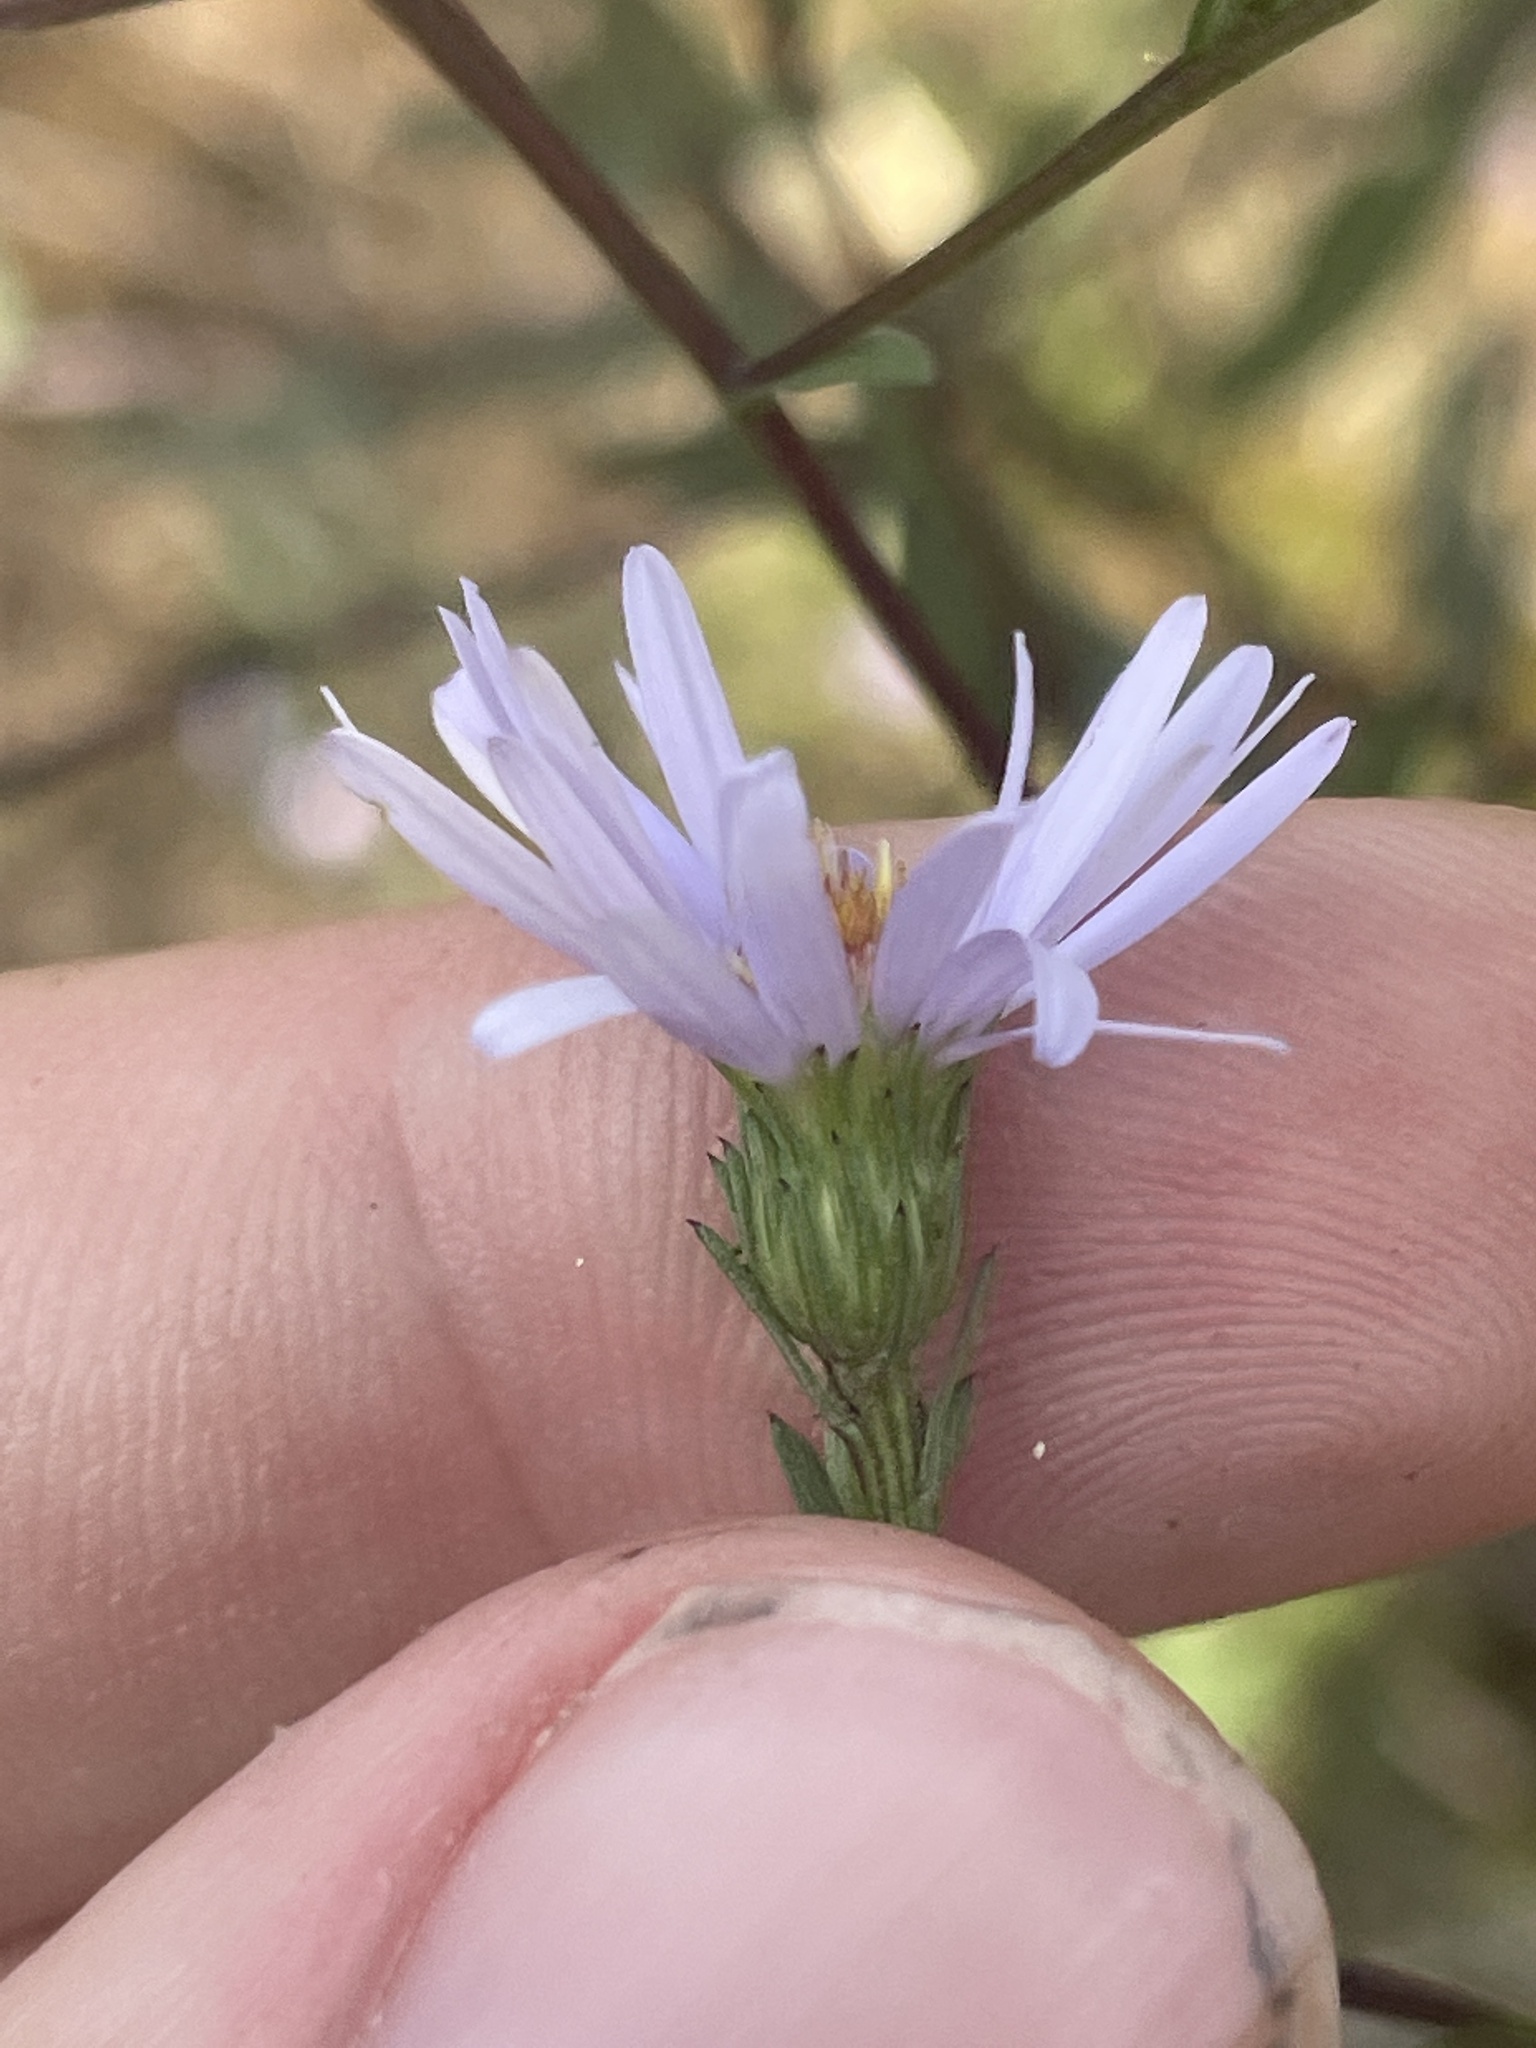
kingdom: Plantae
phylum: Tracheophyta
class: Magnoliopsida
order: Asterales
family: Asteraceae
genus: Symphyotrichum
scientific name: Symphyotrichum laeve
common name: Glaucous aster
